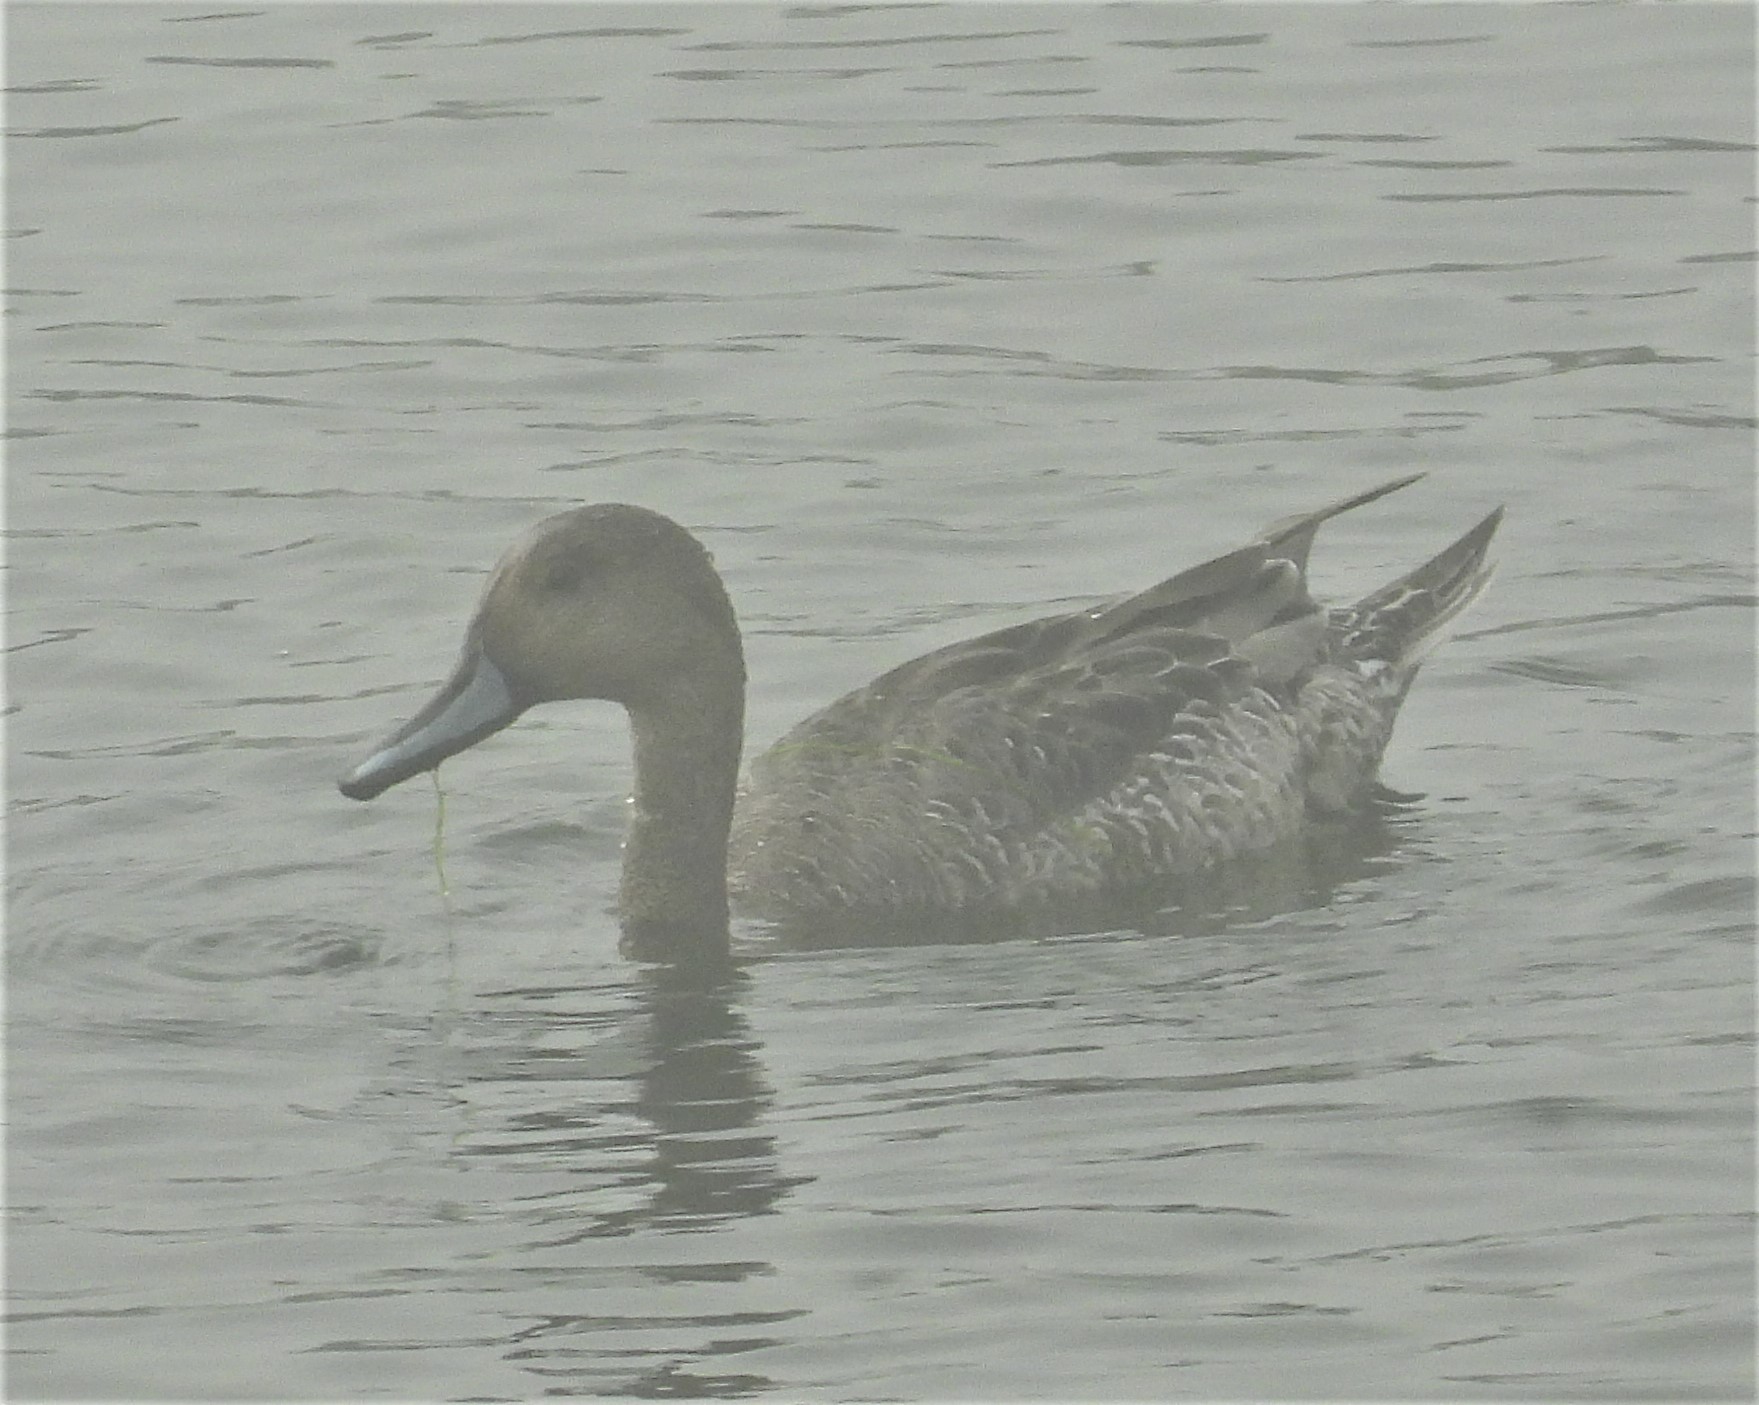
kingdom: Animalia
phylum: Chordata
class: Aves
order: Anseriformes
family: Anatidae
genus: Anas
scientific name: Anas acuta
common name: Northern pintail
